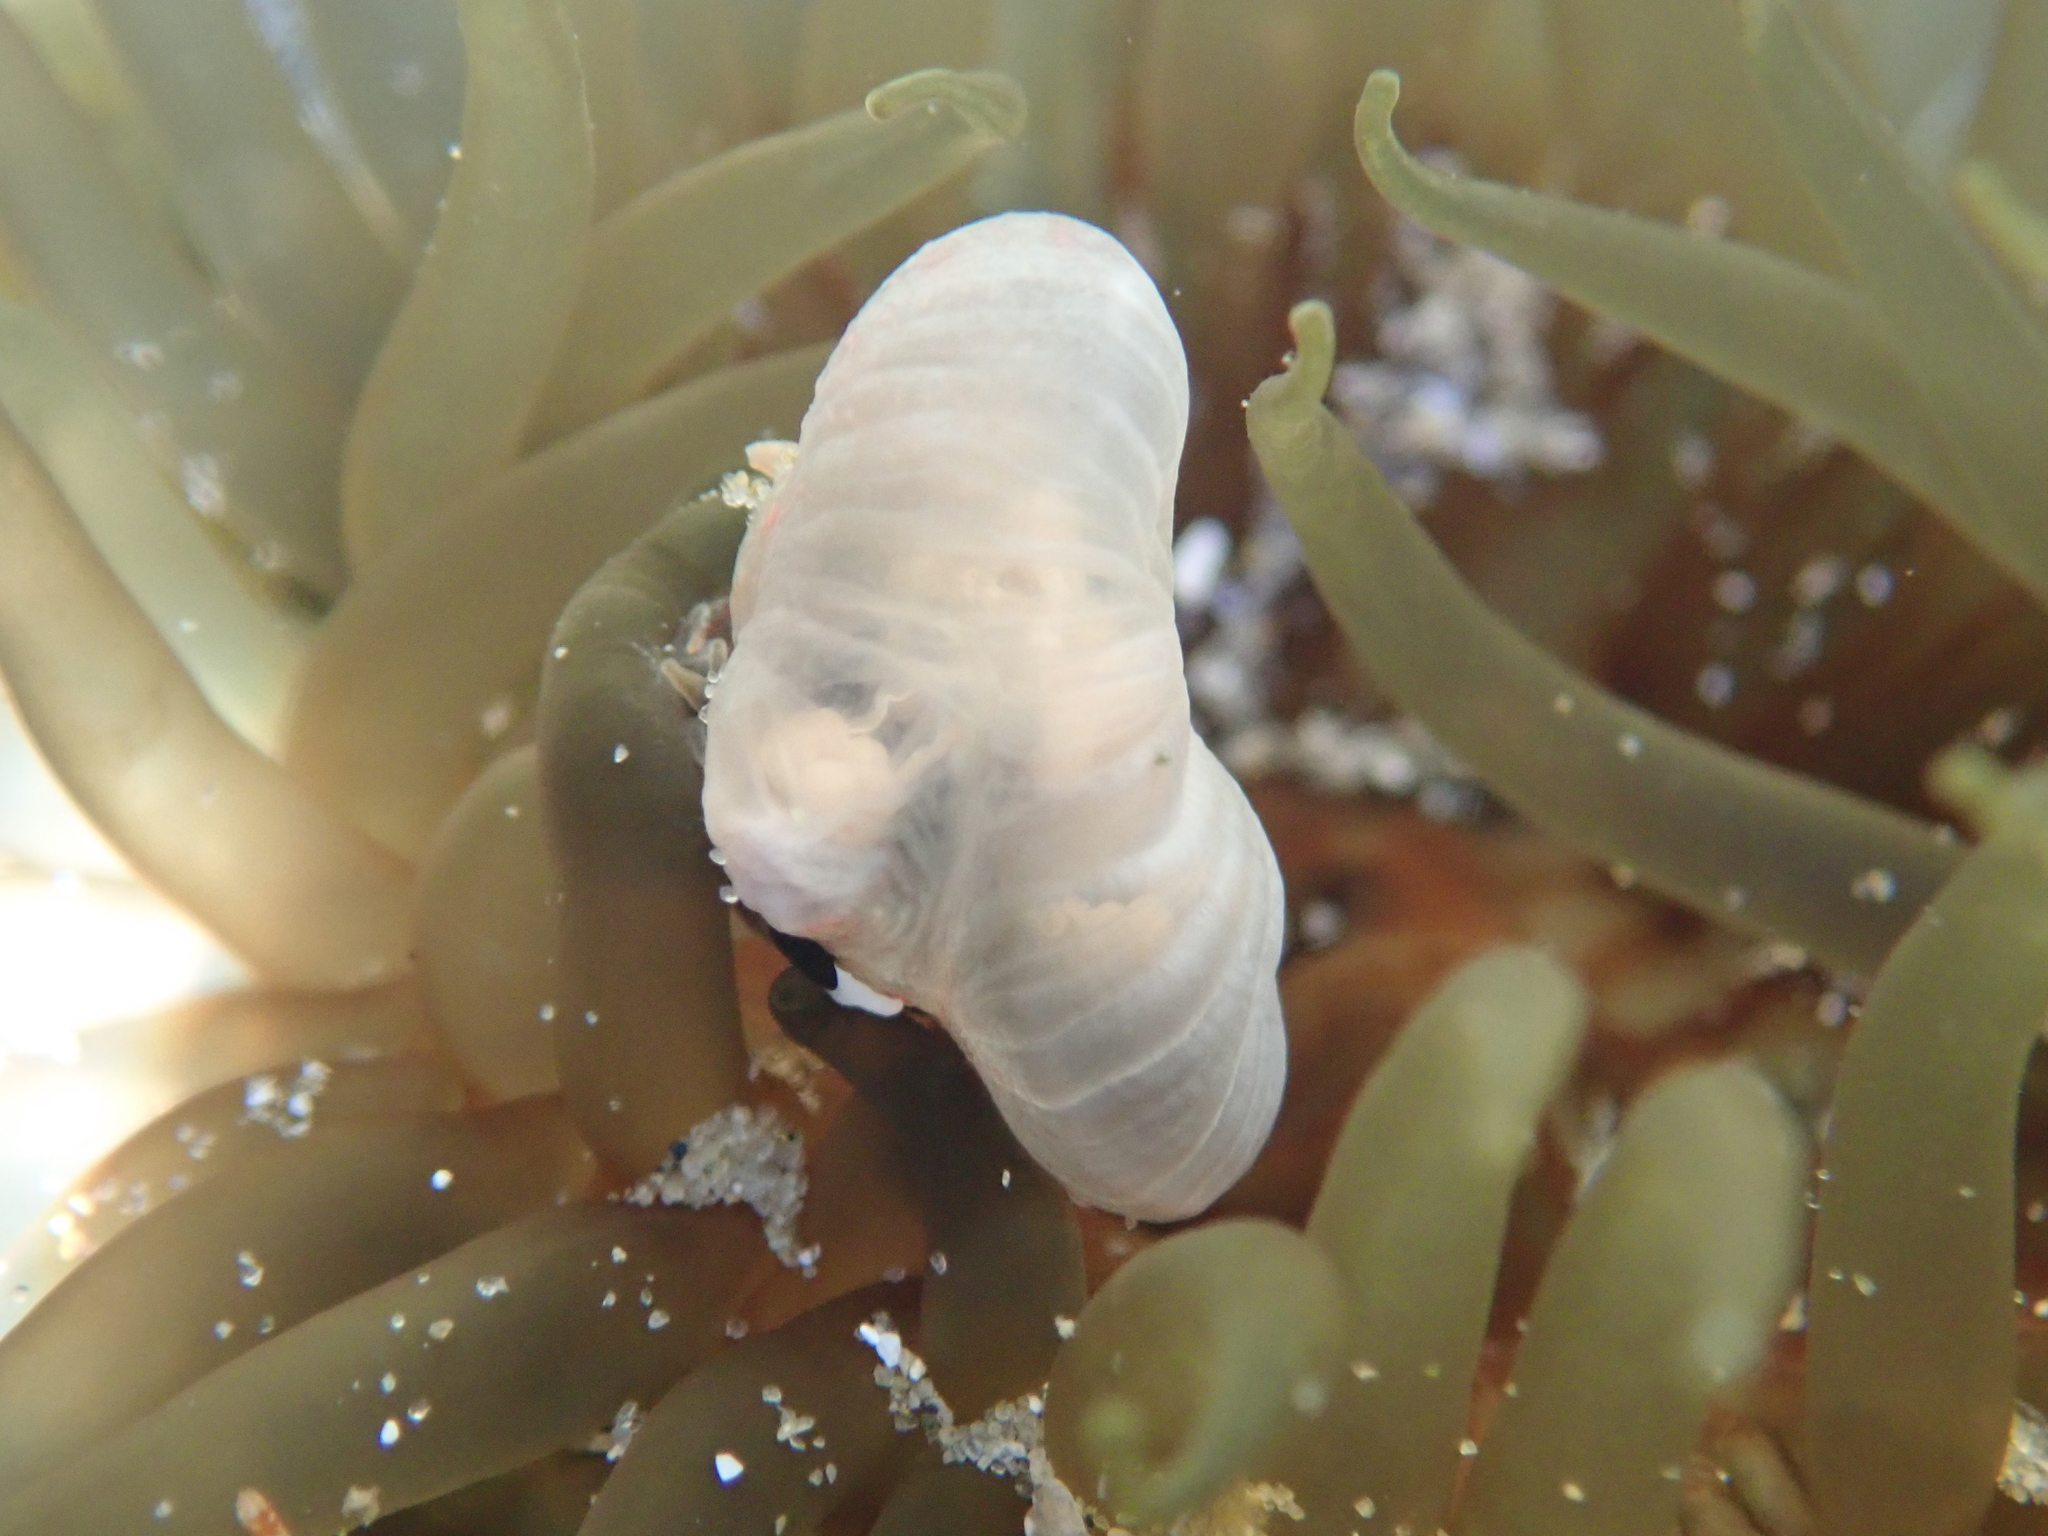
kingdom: Animalia
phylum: Cnidaria
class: Anthozoa
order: Actiniaria
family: Actiniidae
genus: Isactinia
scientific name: Isactinia olivacea
